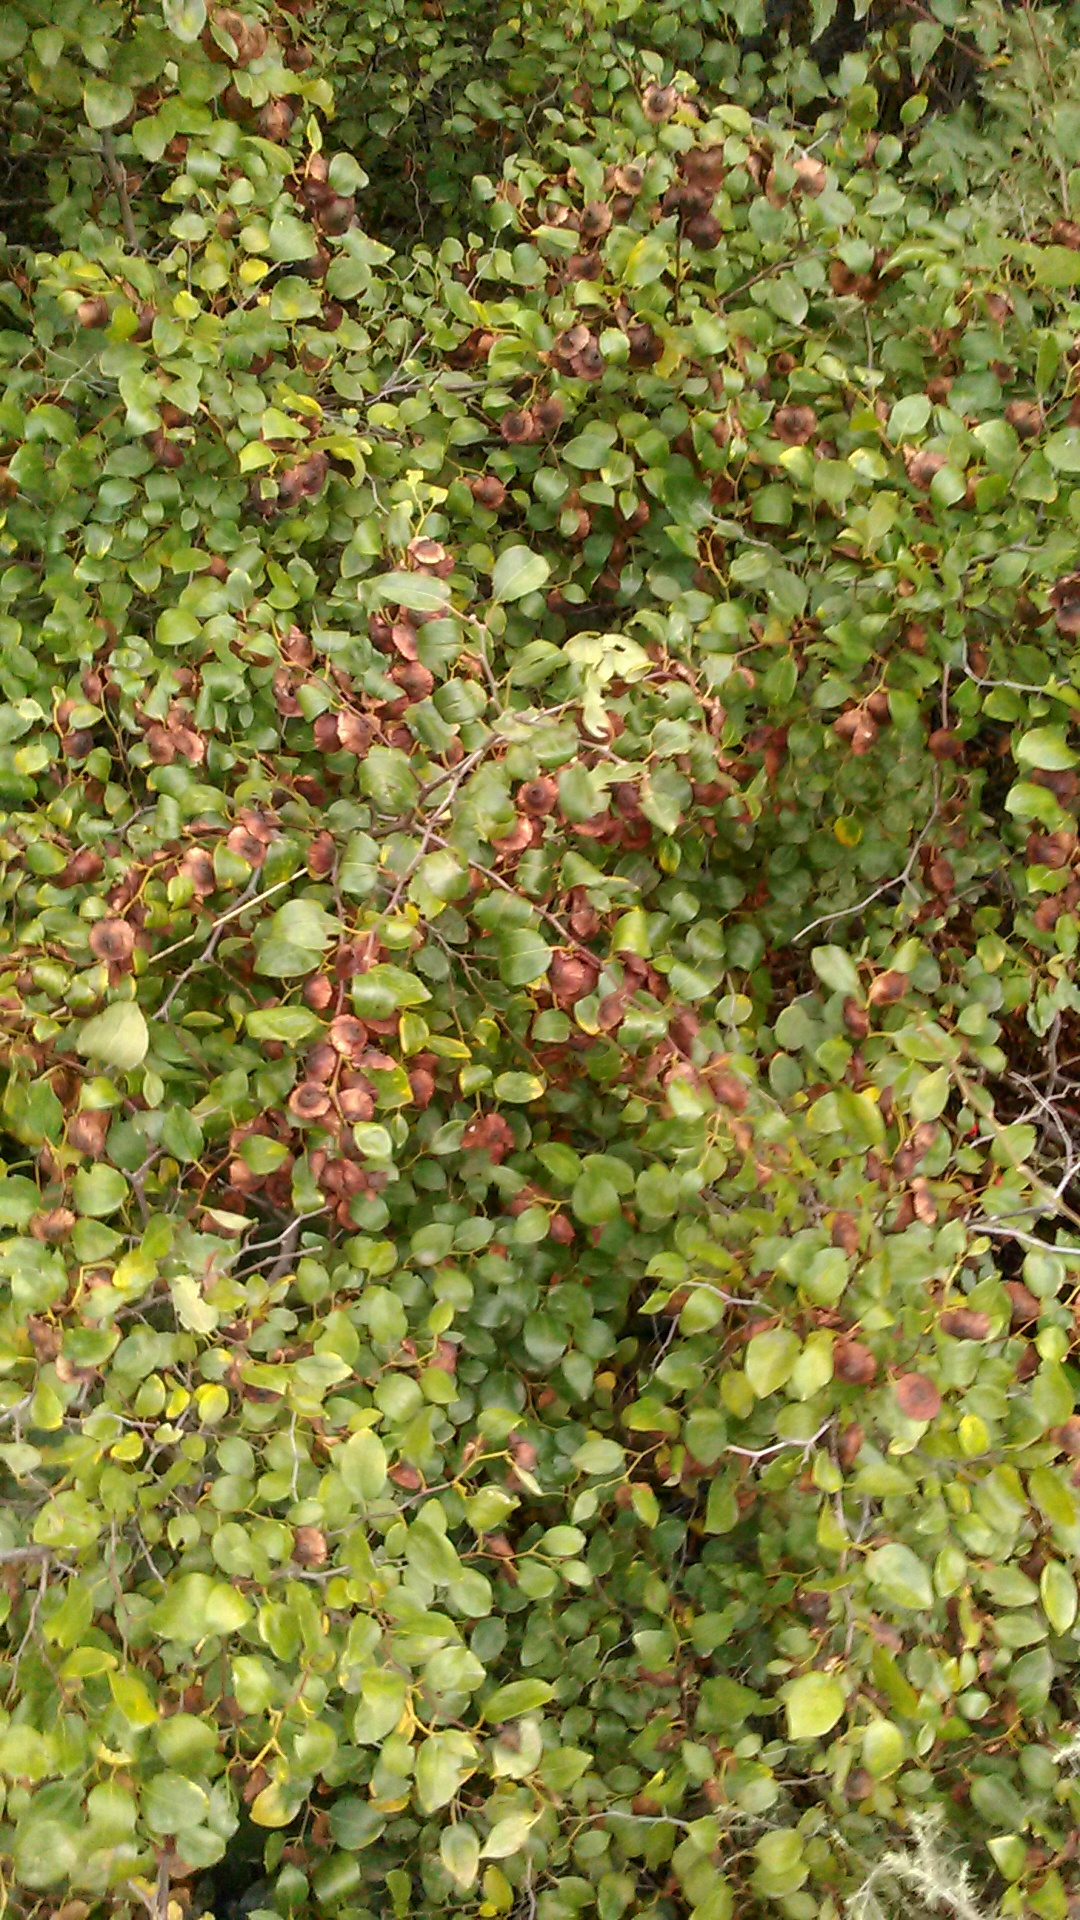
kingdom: Plantae
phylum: Tracheophyta
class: Magnoliopsida
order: Rosales
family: Rhamnaceae
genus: Paliurus
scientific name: Paliurus spina-christi
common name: Jeruselem thorn
